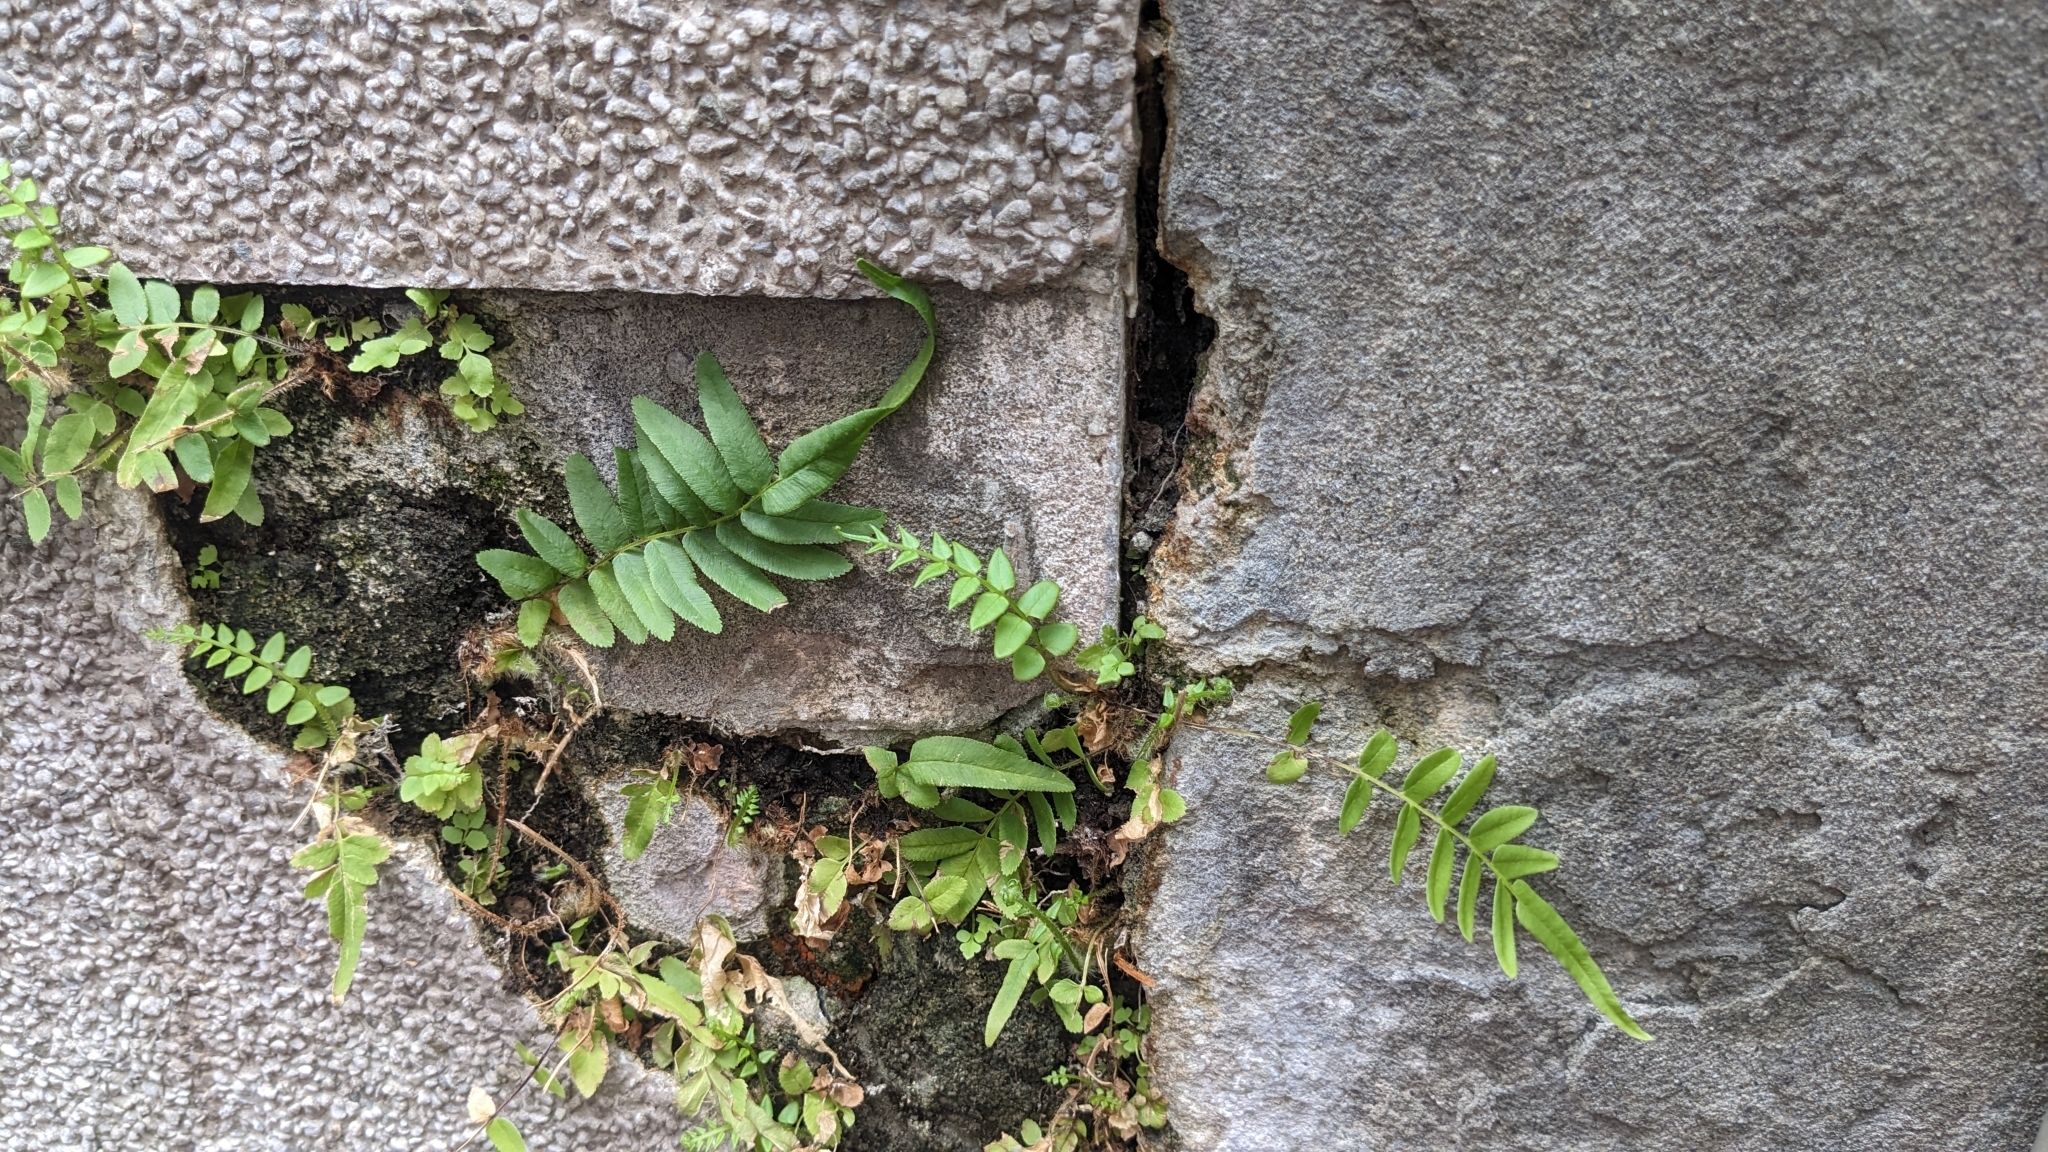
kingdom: Plantae
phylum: Tracheophyta
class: Polypodiopsida
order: Polypodiales
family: Pteridaceae
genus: Pteris
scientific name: Pteris vittata
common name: Ladder brake
